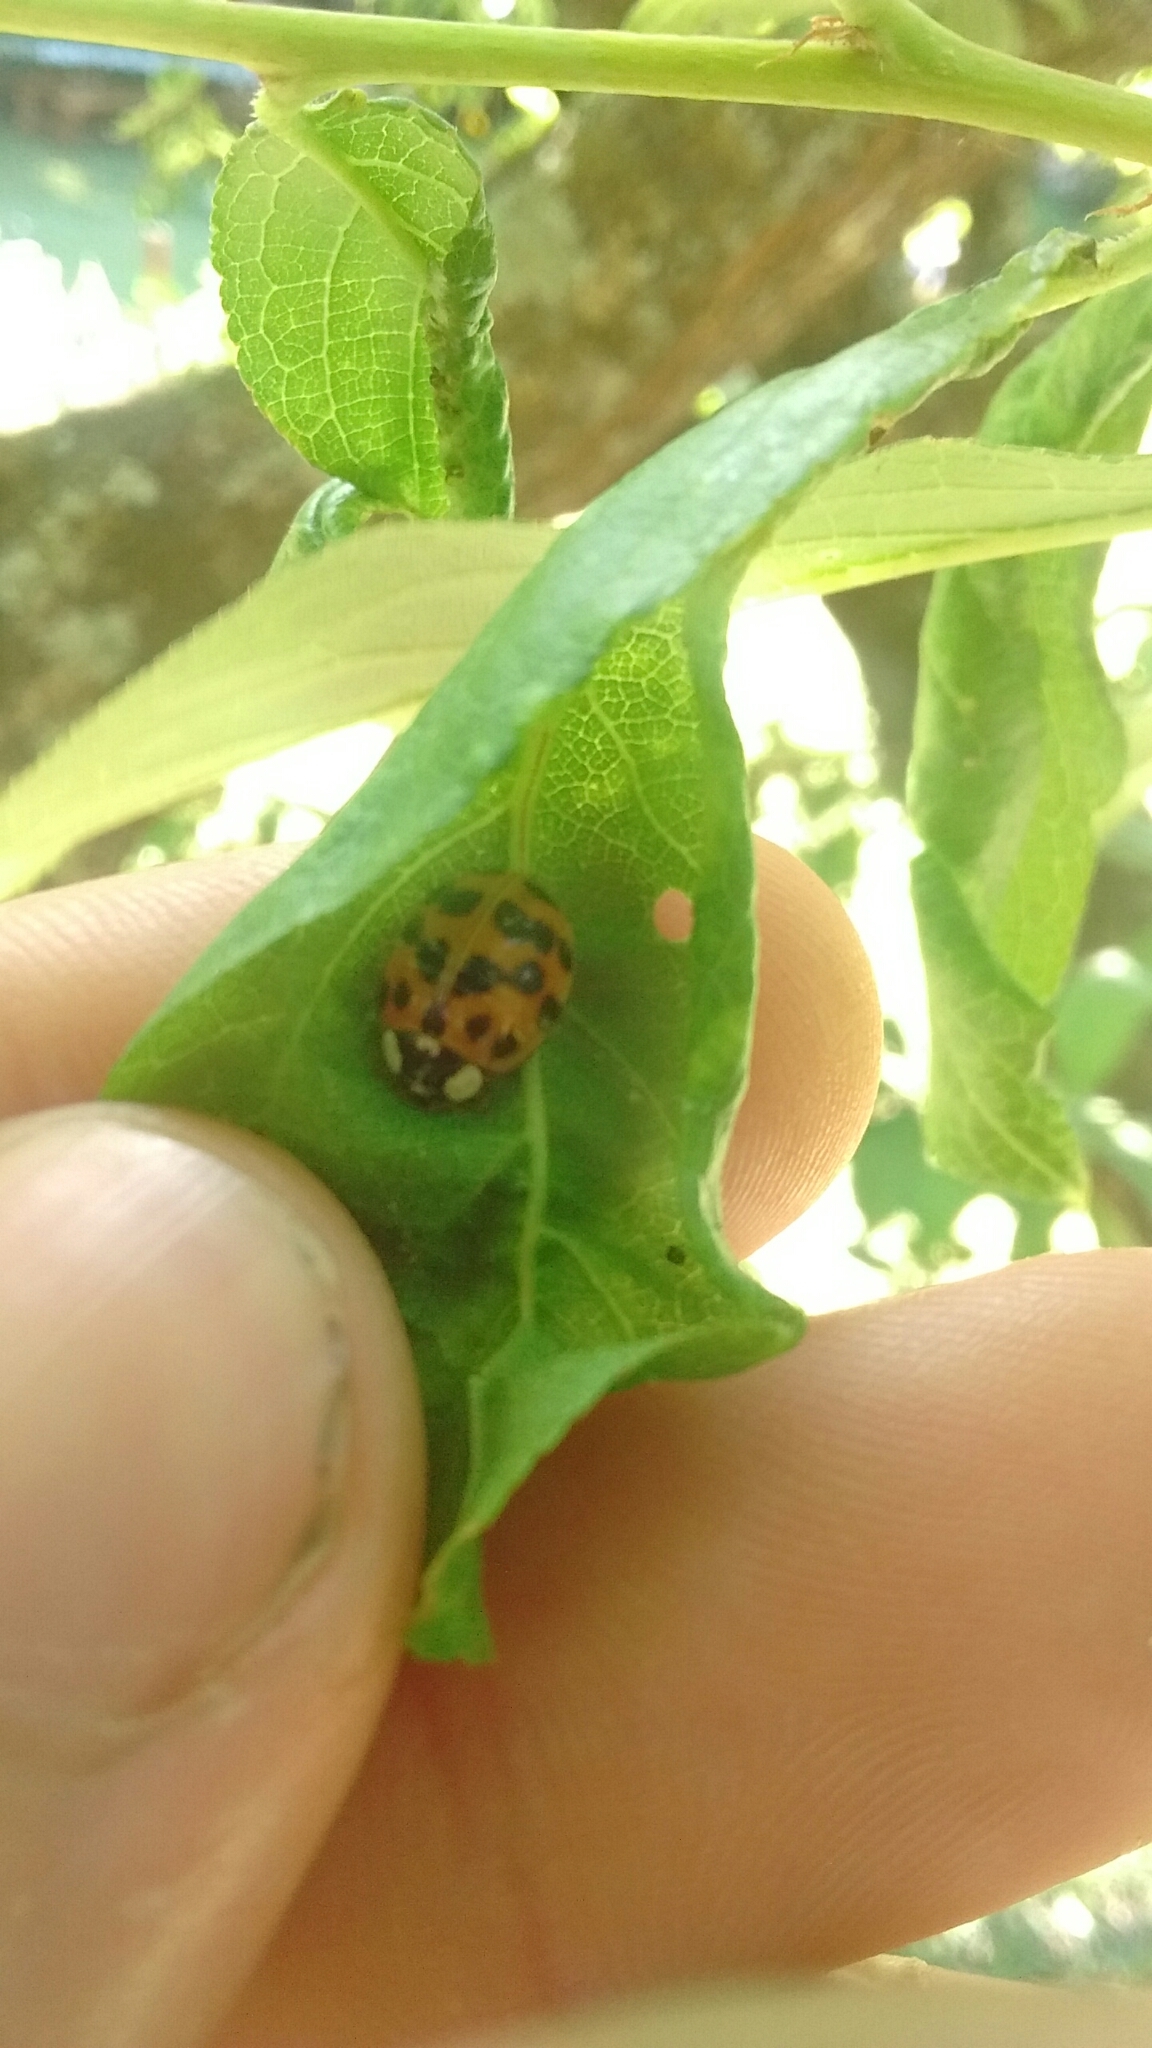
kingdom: Animalia
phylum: Arthropoda
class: Insecta
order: Coleoptera
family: Coccinellidae
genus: Harmonia
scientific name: Harmonia axyridis
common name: Harlequin ladybird
